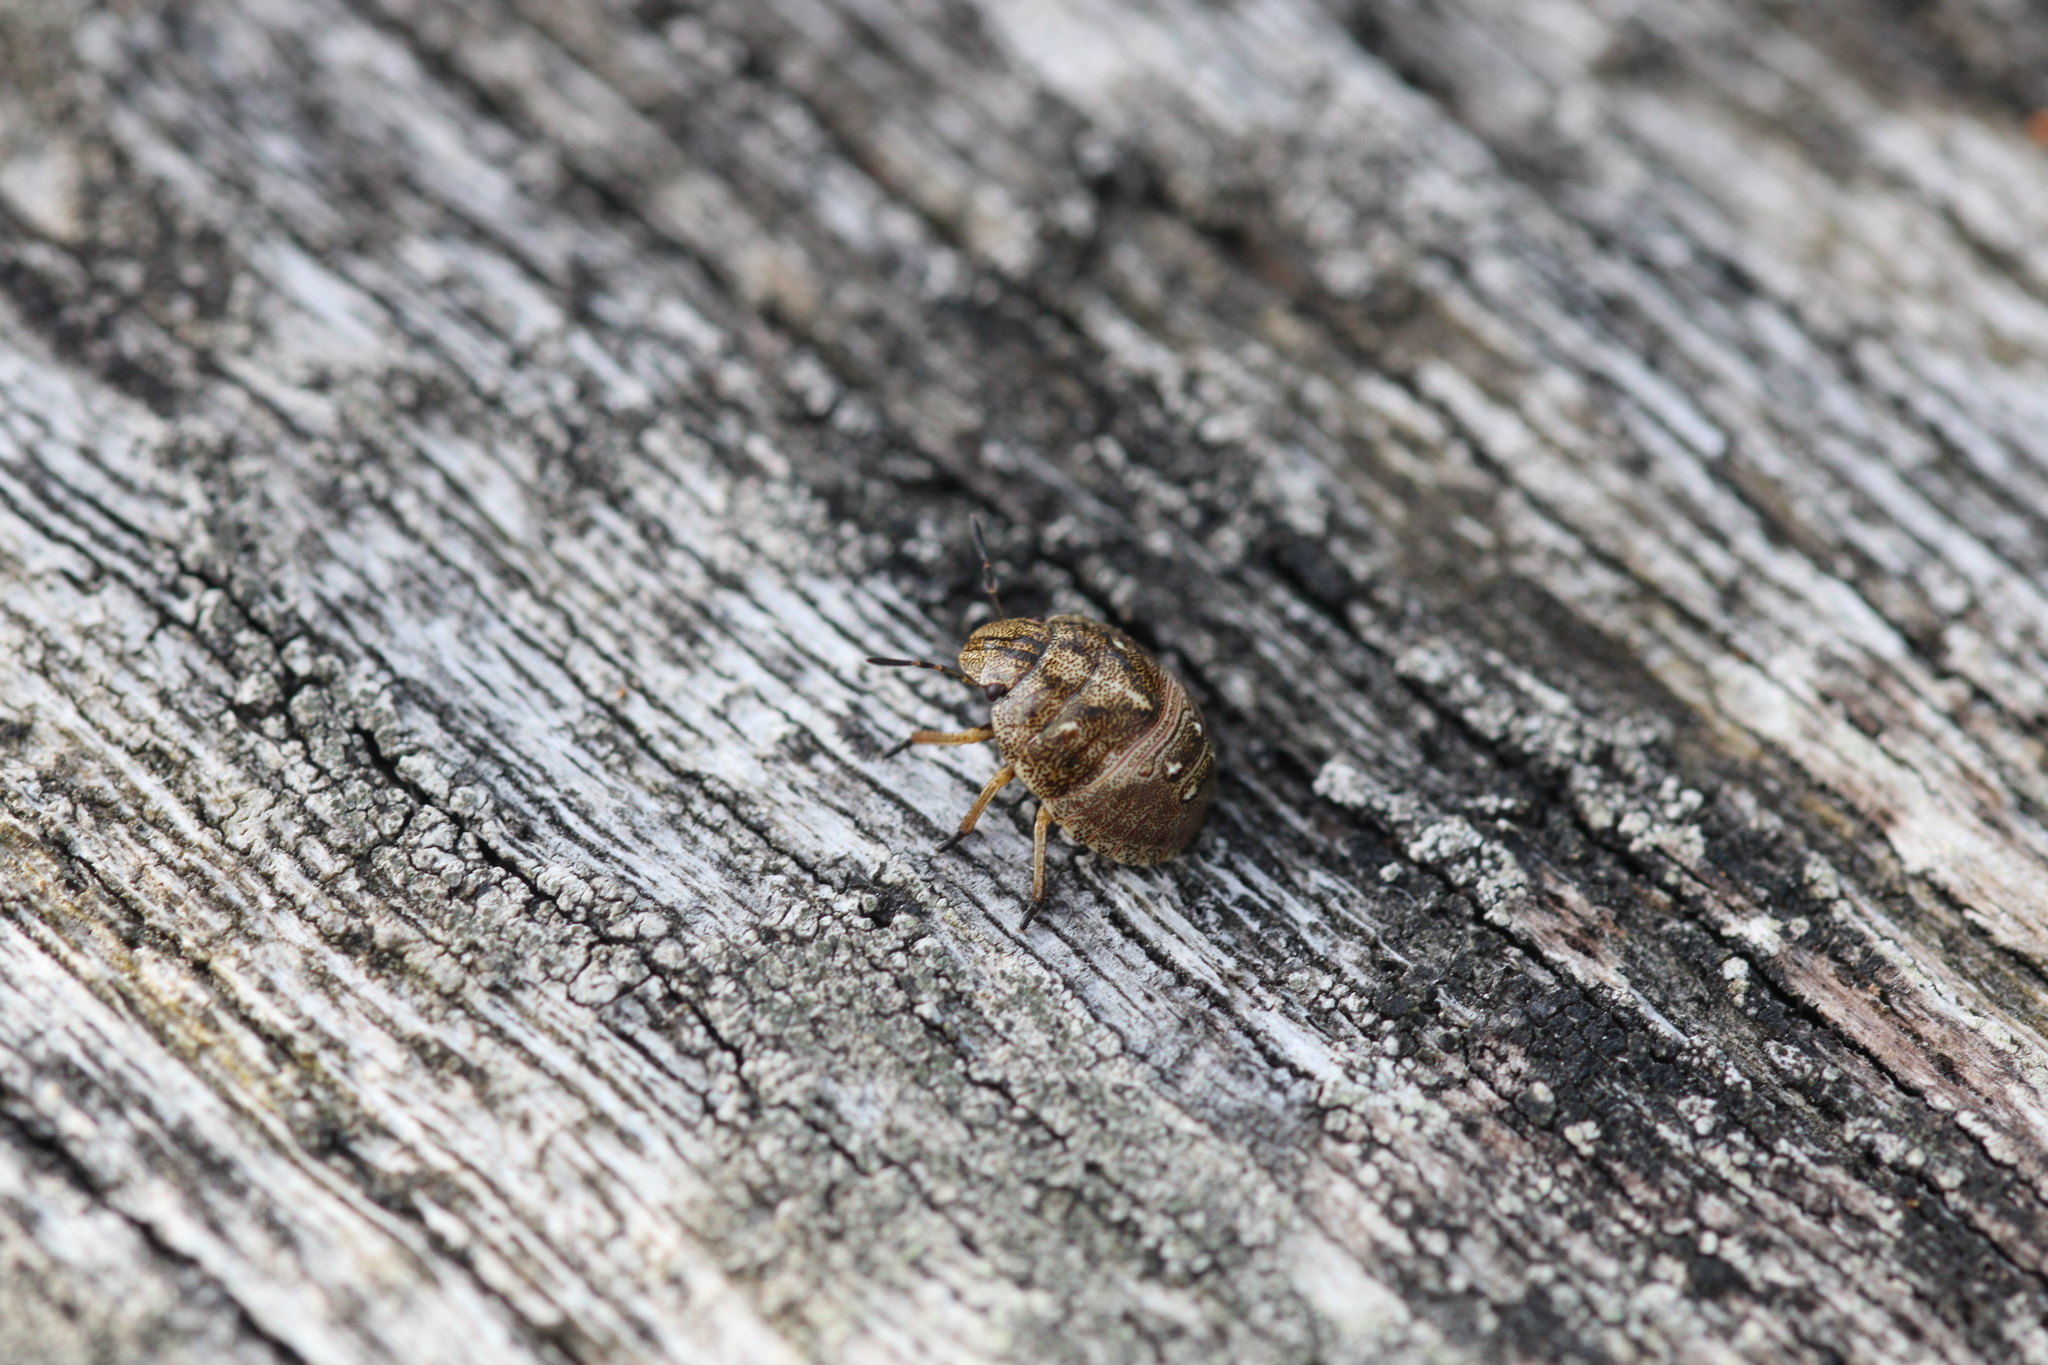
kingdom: Animalia
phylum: Arthropoda
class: Insecta
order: Hemiptera
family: Scutelleridae
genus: Eurygaster
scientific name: Eurygaster testudinaria
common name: Tortoise bug
